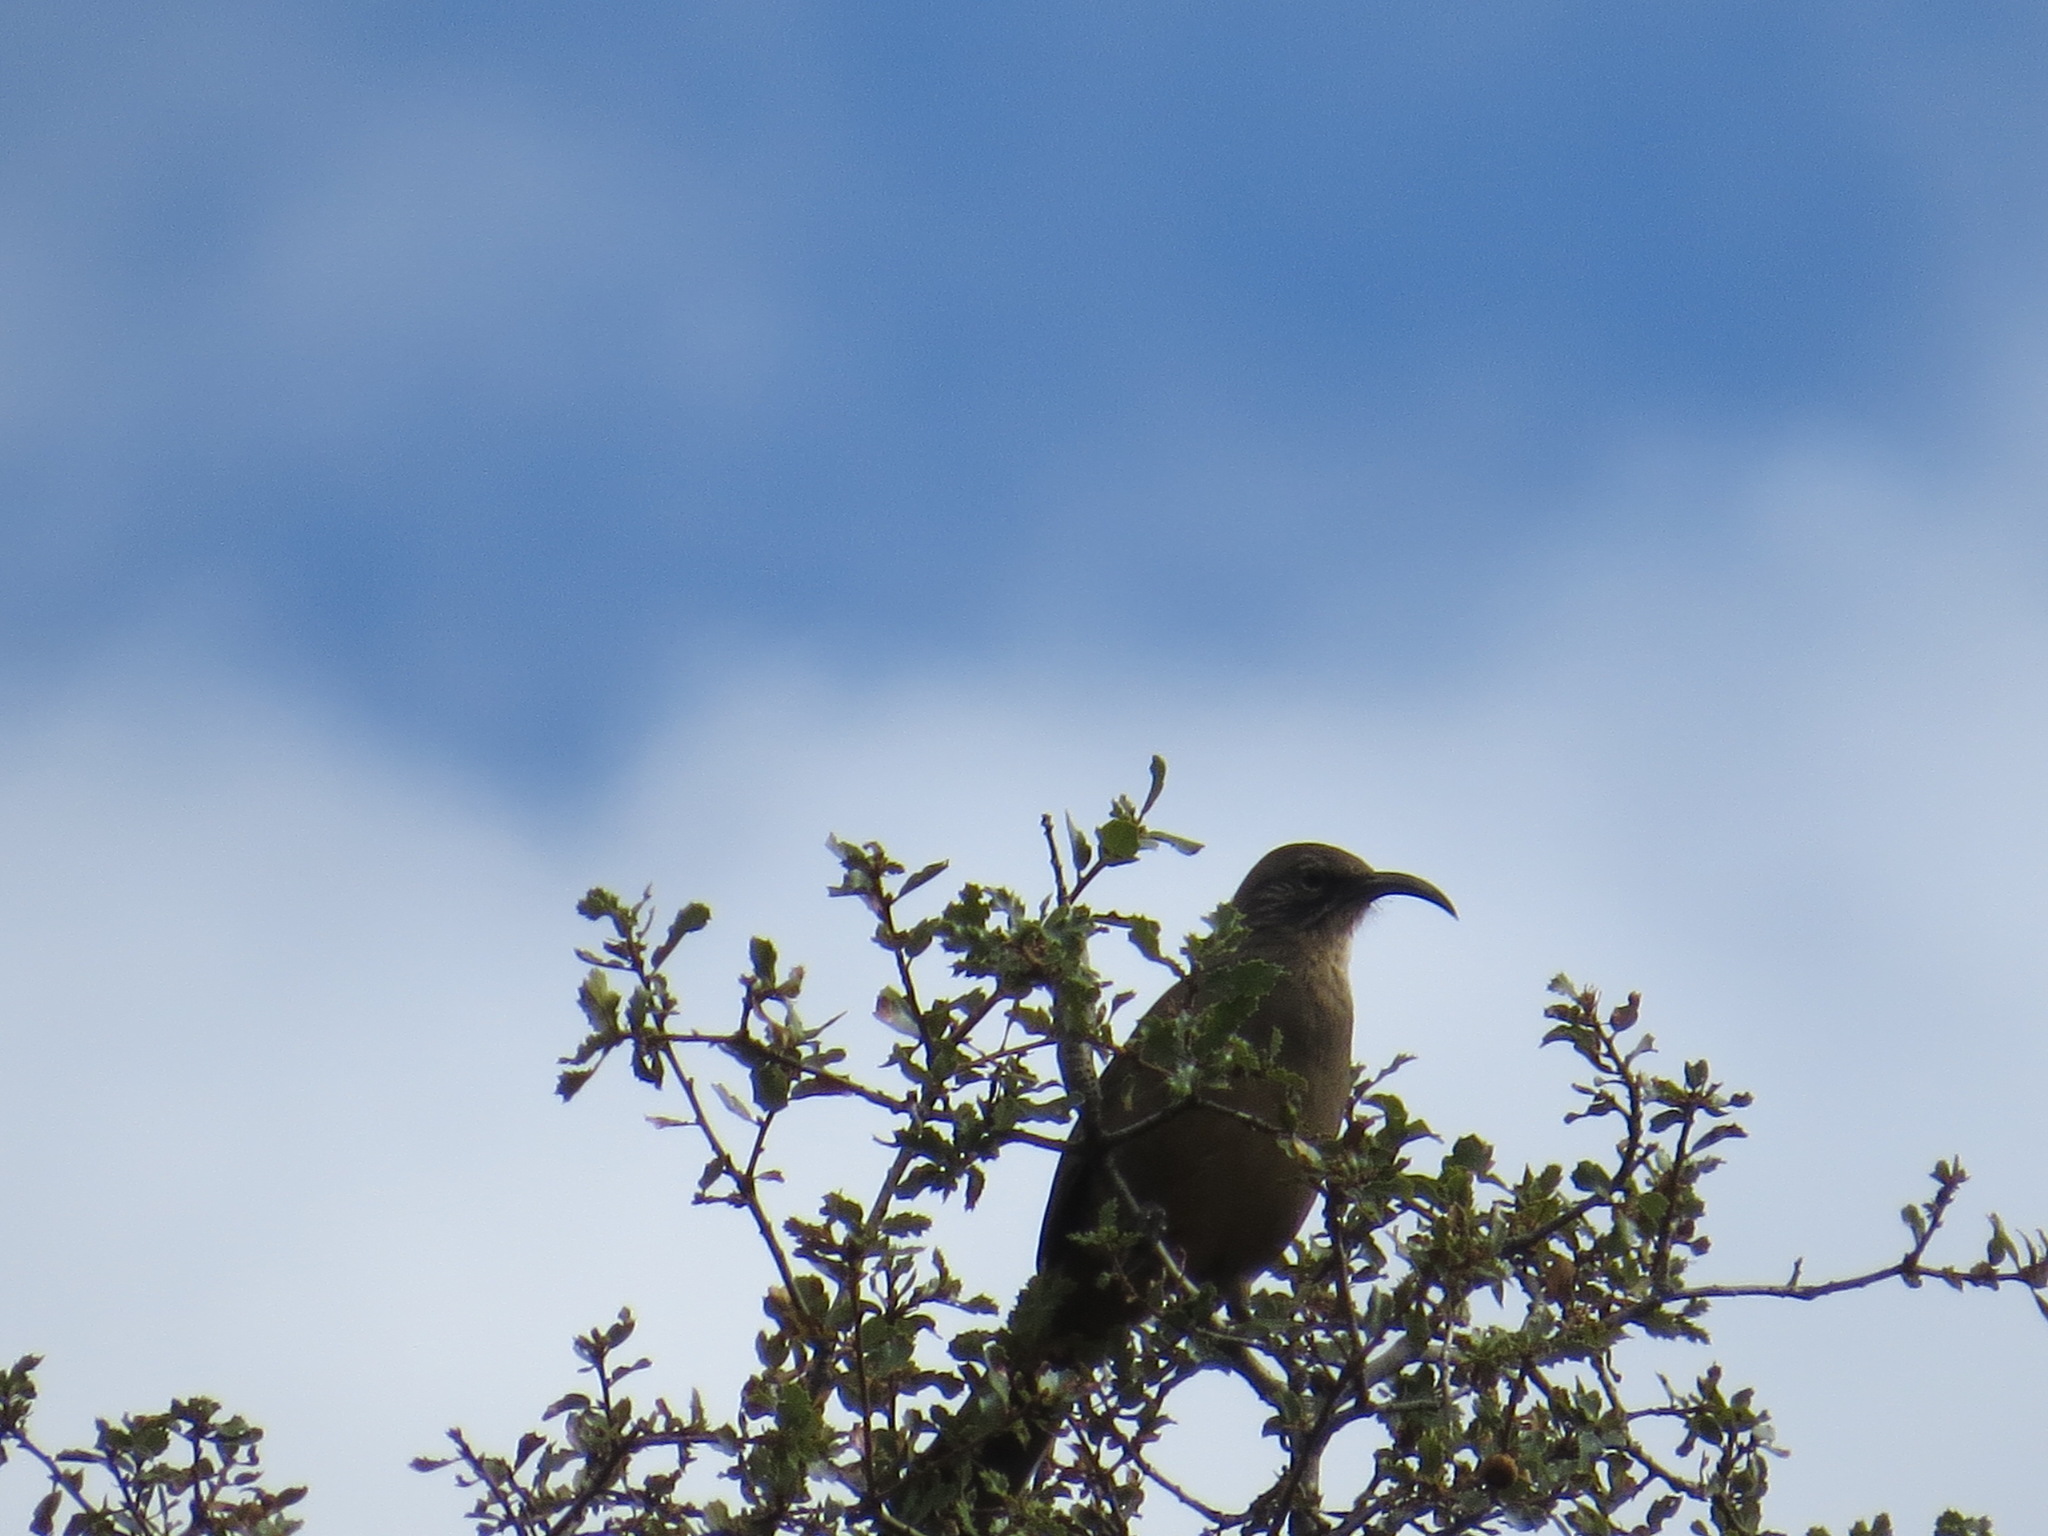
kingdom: Animalia
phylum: Chordata
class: Aves
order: Passeriformes
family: Mimidae
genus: Toxostoma
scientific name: Toxostoma redivivum
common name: California thrasher
